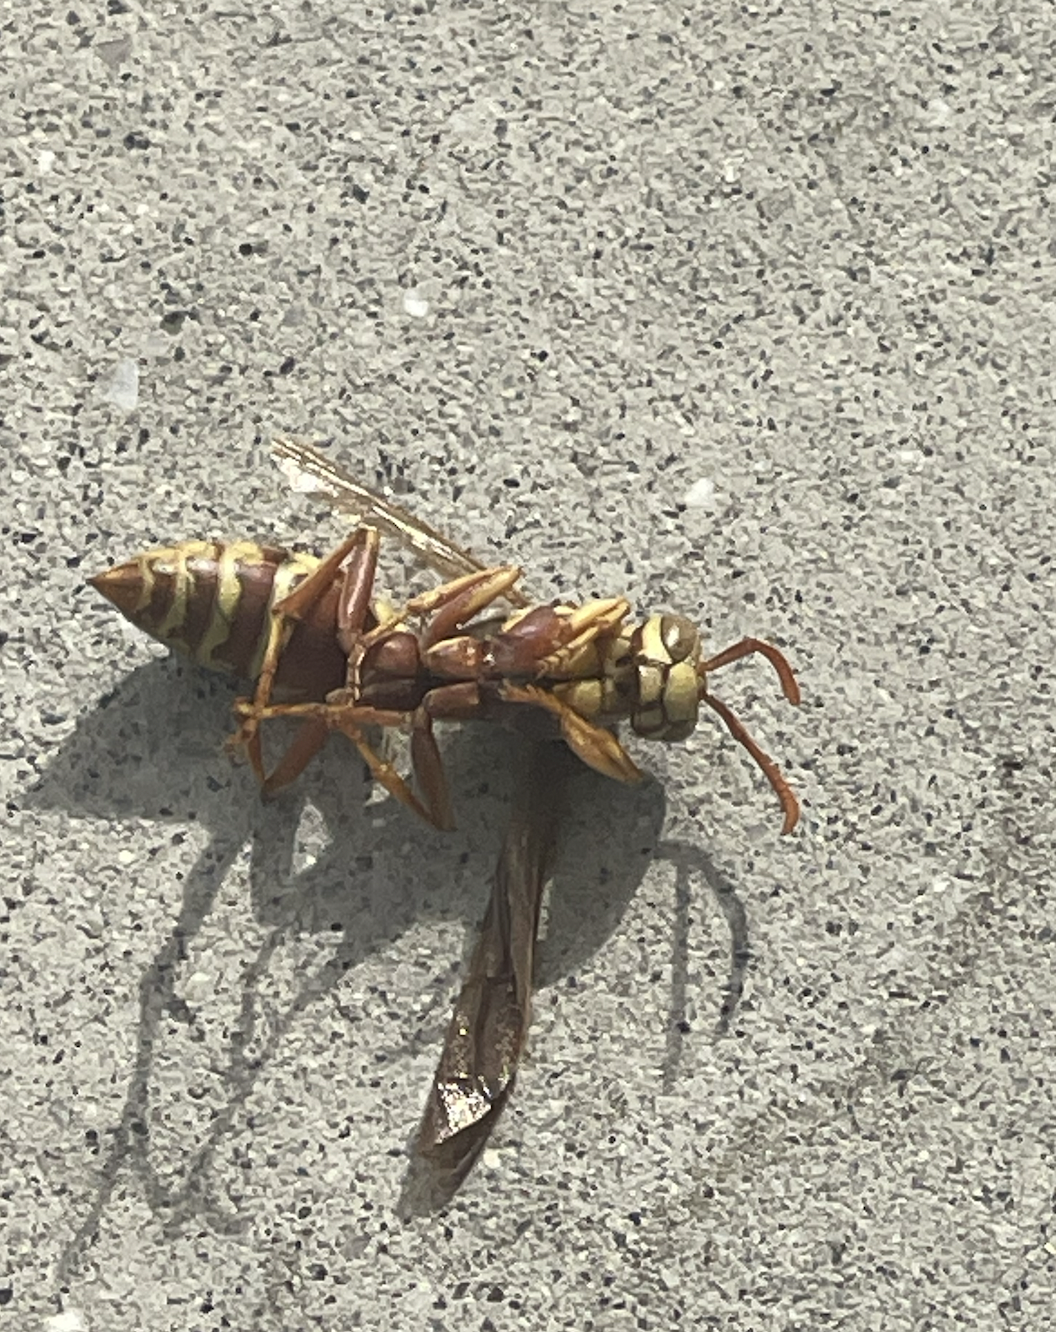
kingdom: Animalia
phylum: Arthropoda
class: Insecta
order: Hymenoptera
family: Vespidae
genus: Fuscopolistes
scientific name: Fuscopolistes
